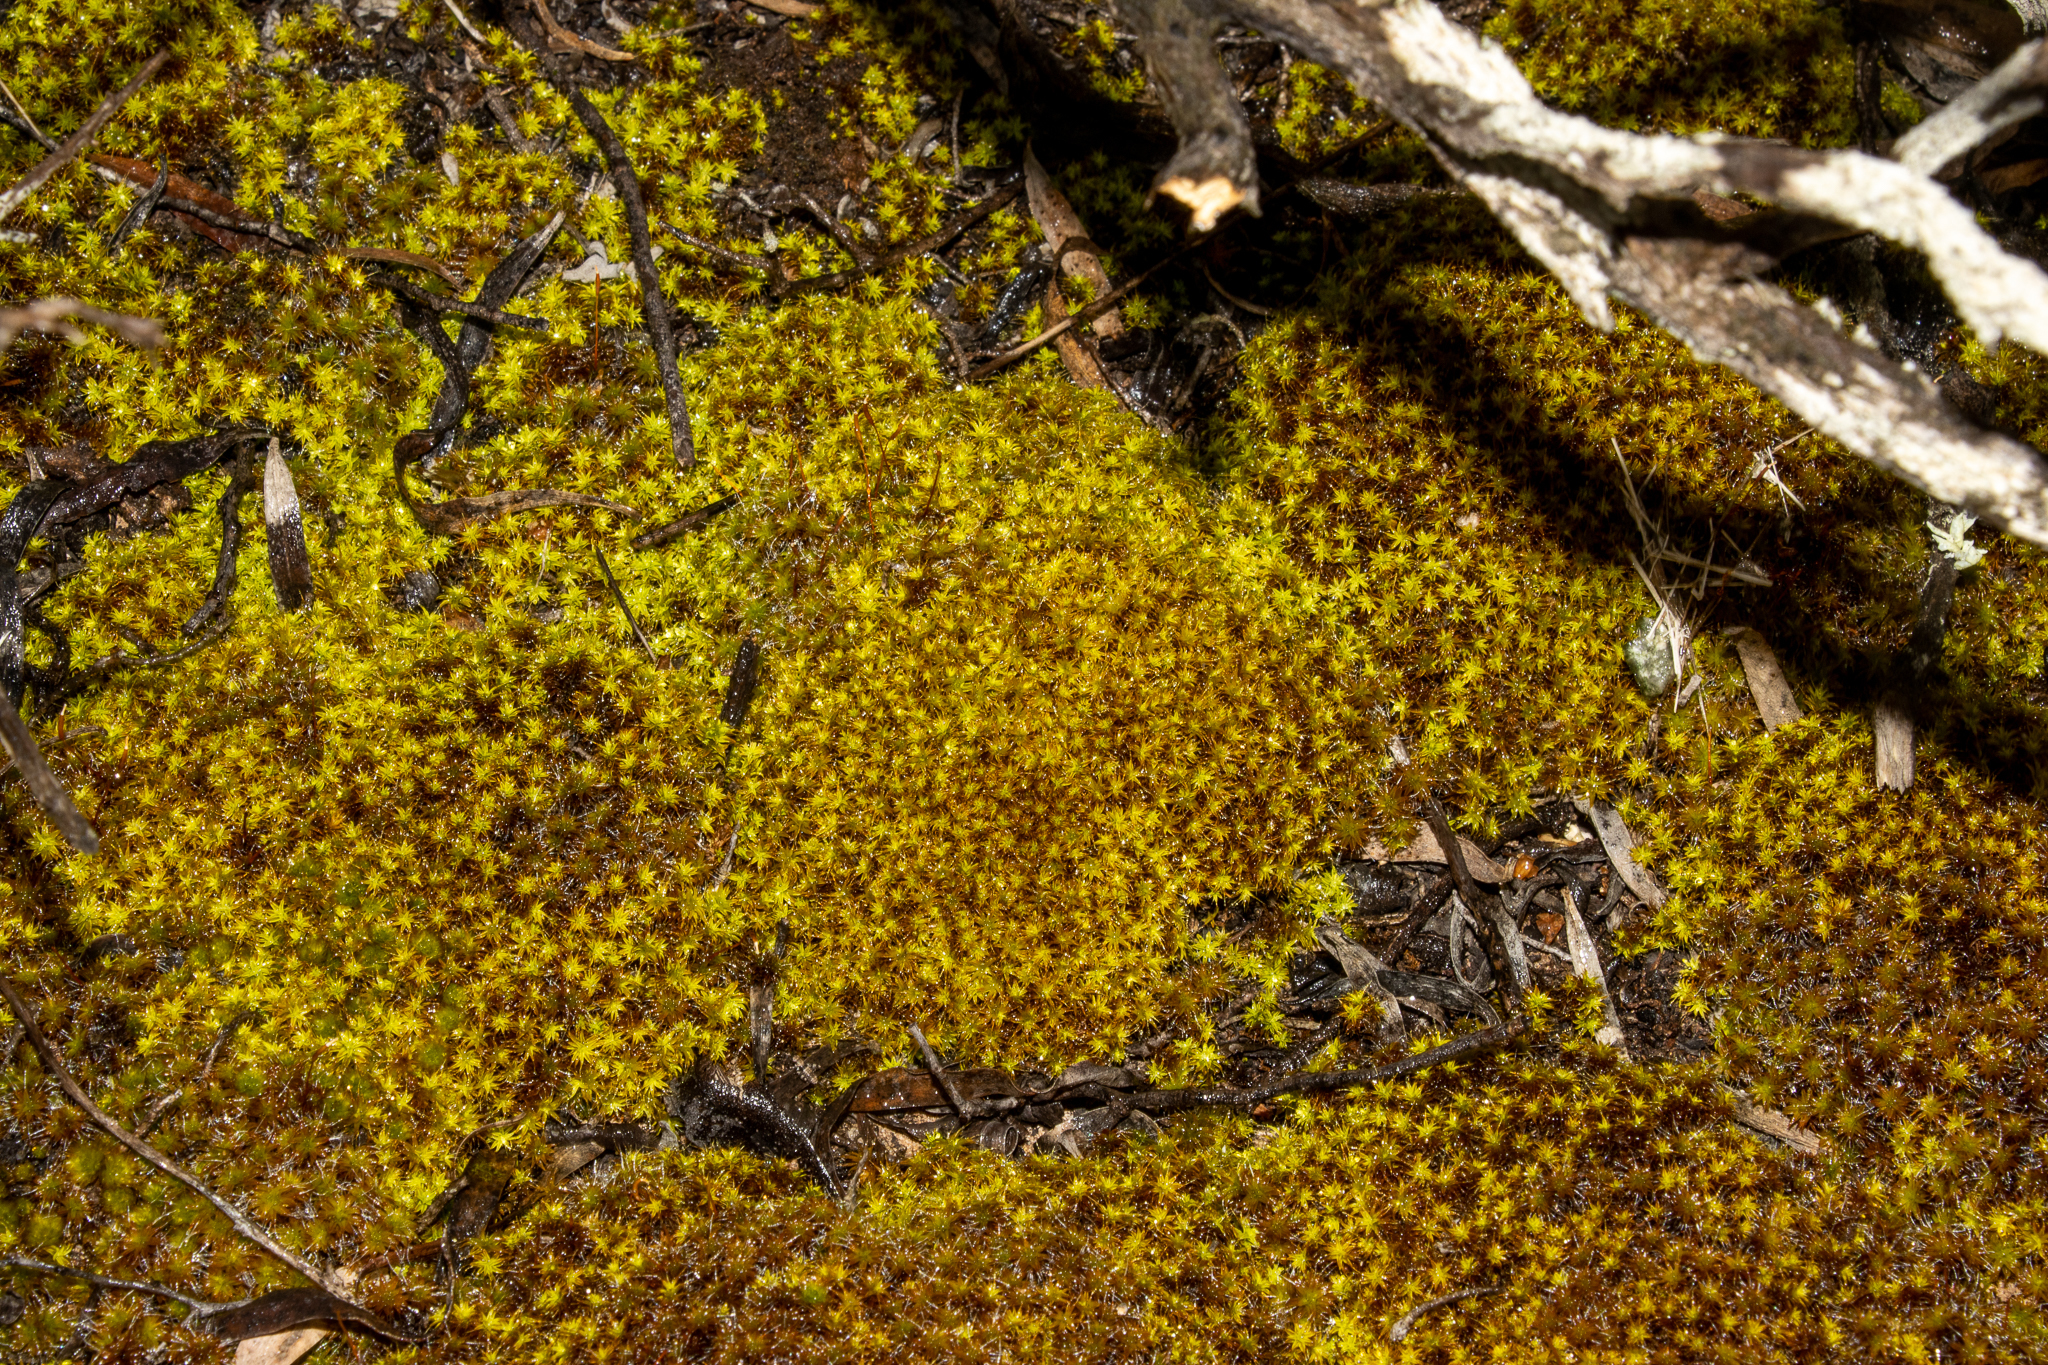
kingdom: Plantae
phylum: Bryophyta
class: Bryopsida
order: Pottiales
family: Pottiaceae
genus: Syntrichia
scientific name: Syntrichia ruralis
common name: Sidewalk screw moss
